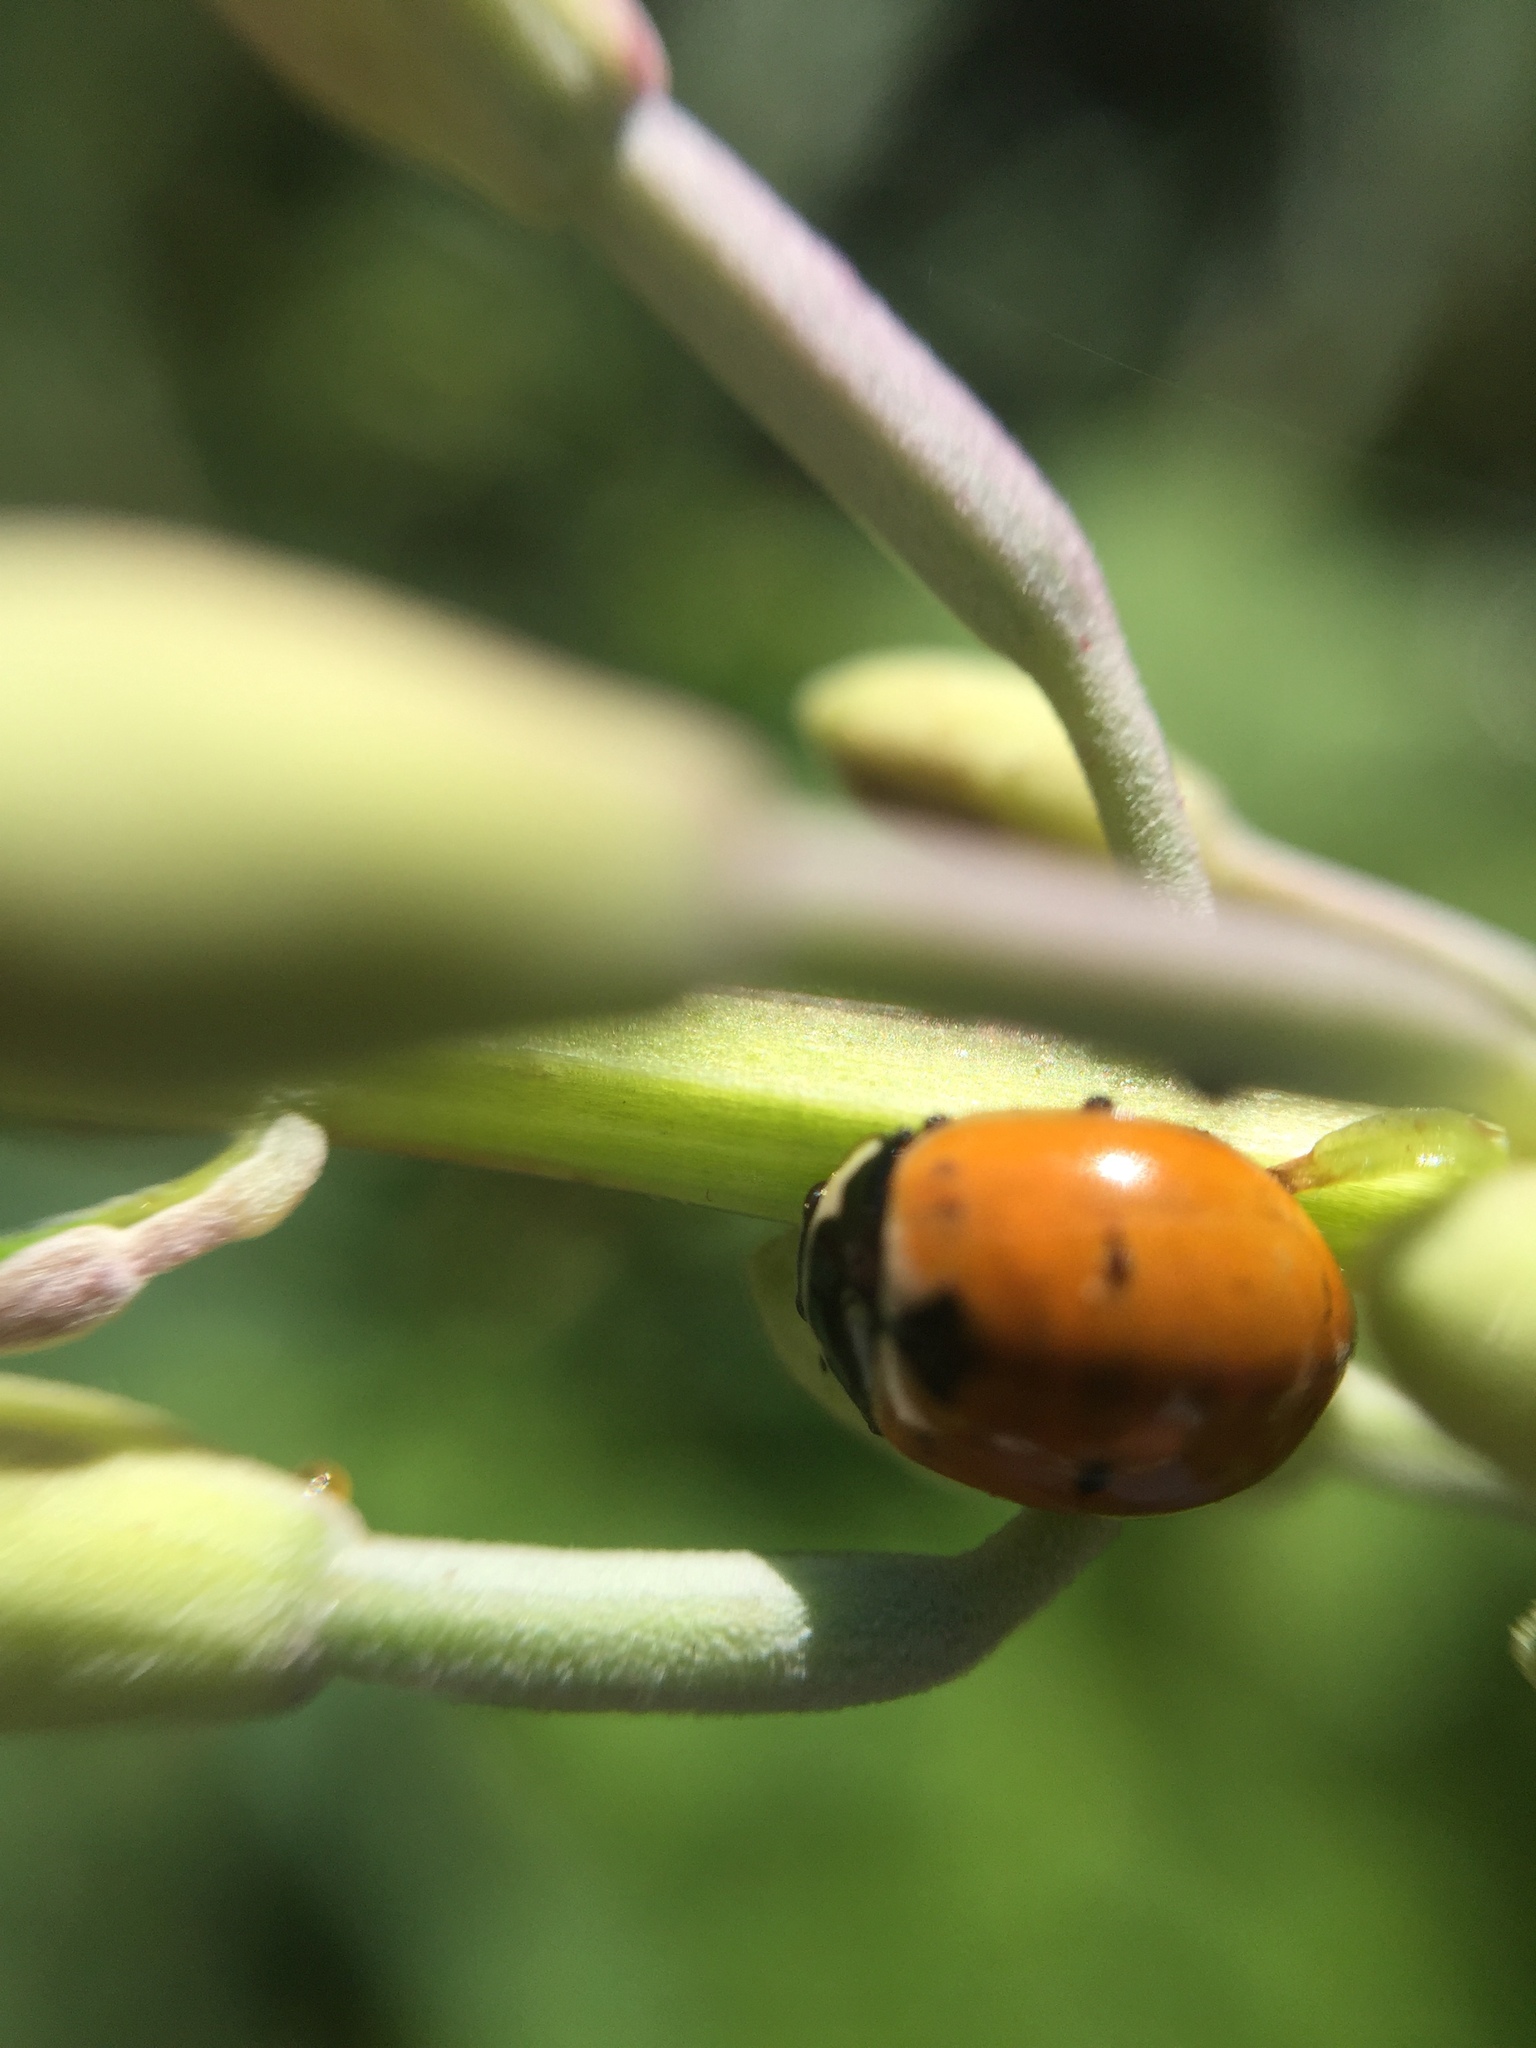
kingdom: Animalia
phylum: Arthropoda
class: Insecta
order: Coleoptera
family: Coccinellidae
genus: Coccinella
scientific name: Coccinella trifasciata
